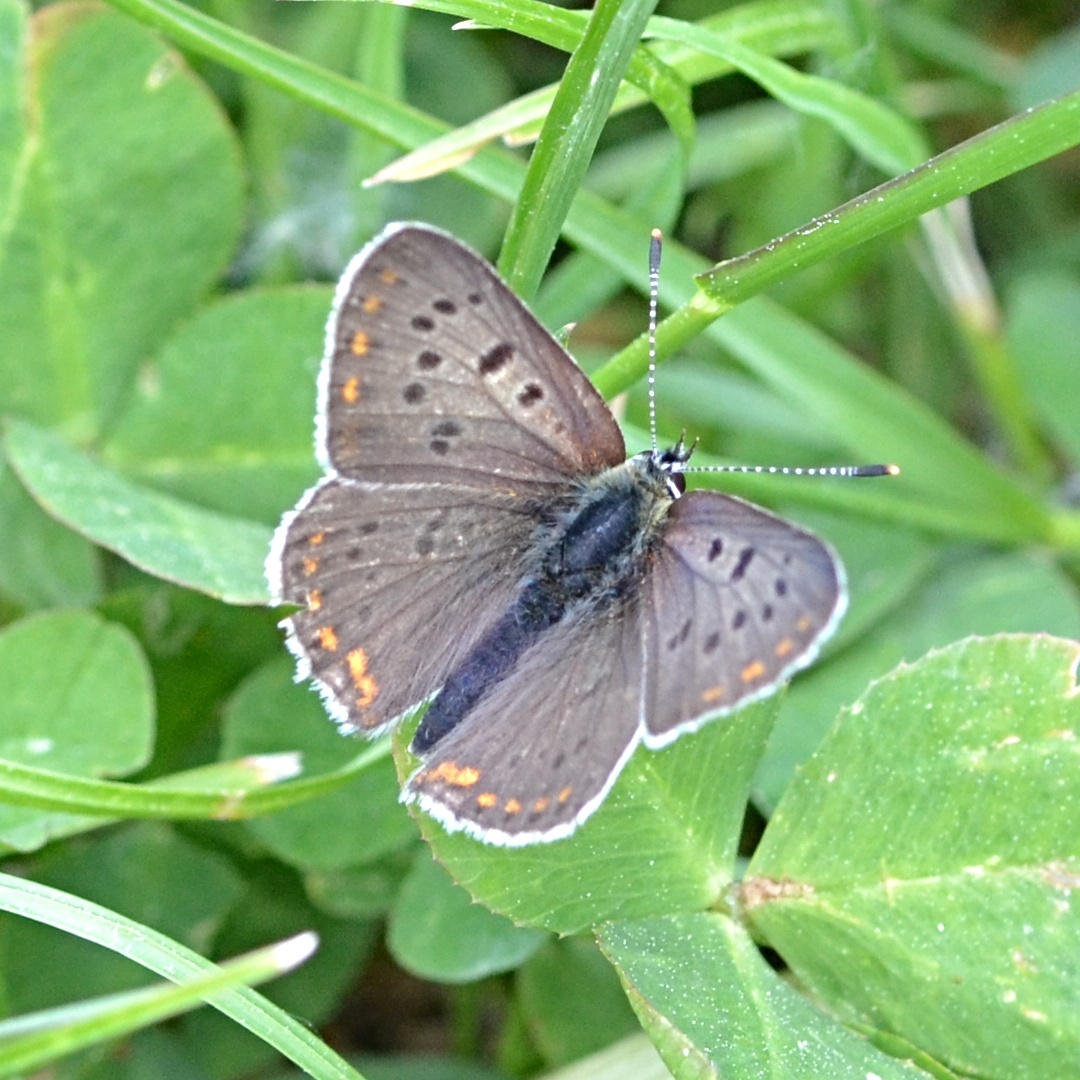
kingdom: Animalia
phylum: Arthropoda
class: Insecta
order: Lepidoptera
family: Lycaenidae
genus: Loweia
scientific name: Loweia tityrus
